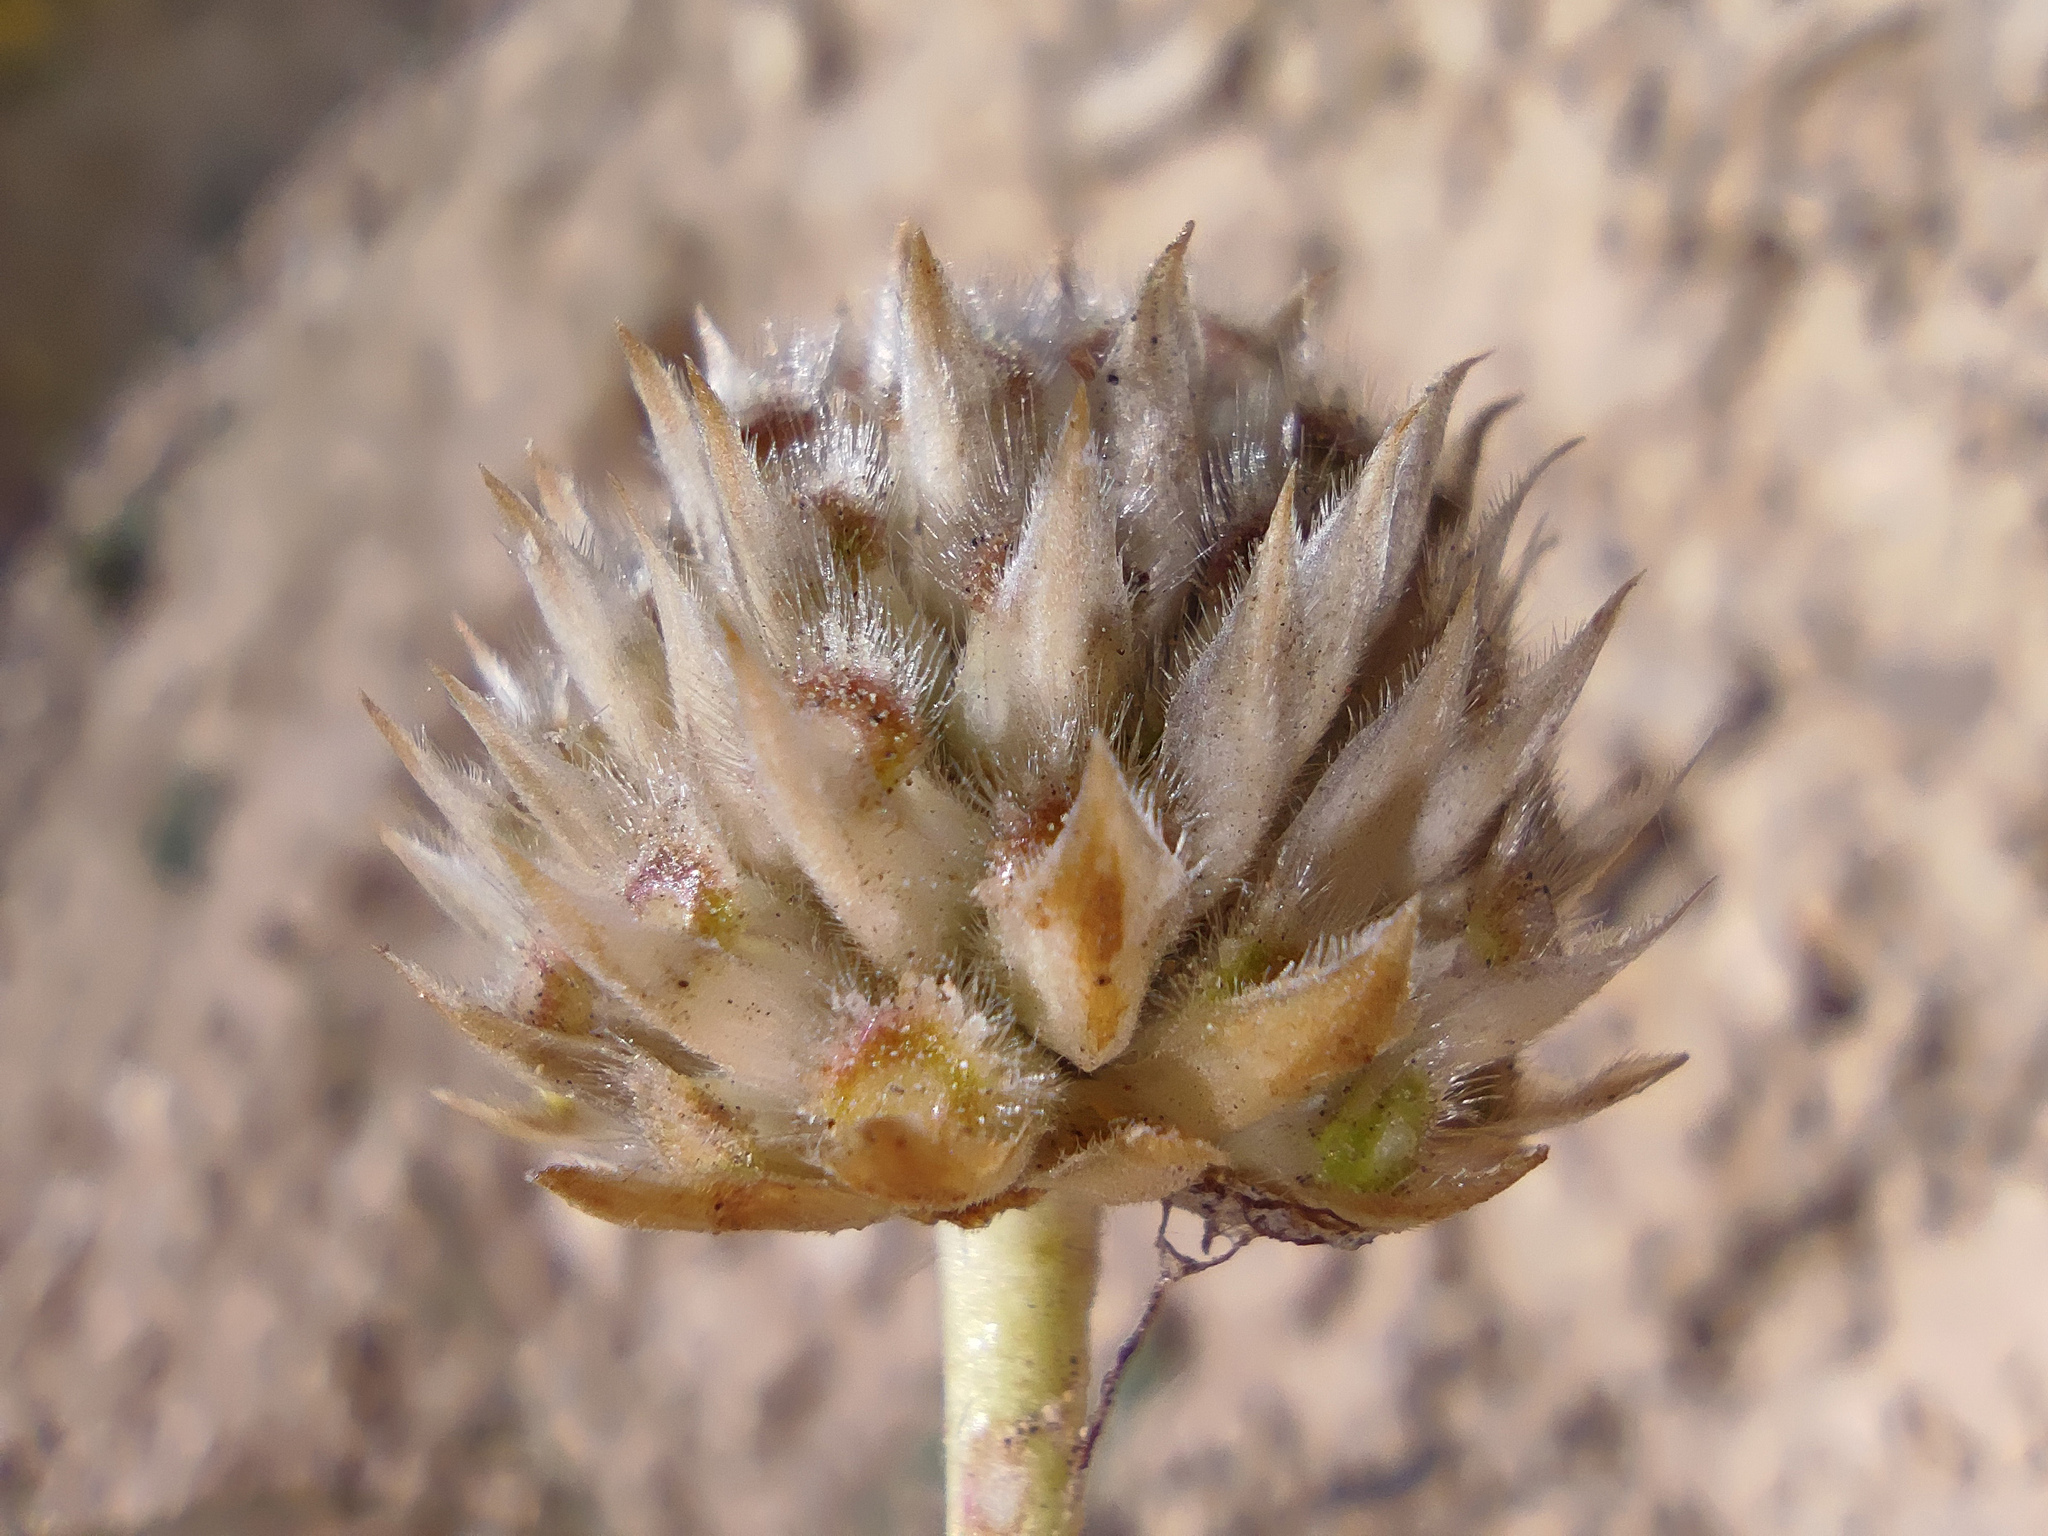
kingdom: Plantae
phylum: Tracheophyta
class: Magnoliopsida
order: Dipsacales
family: Caprifoliaceae
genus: Cephalaria
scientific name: Cephalaria uralensis
